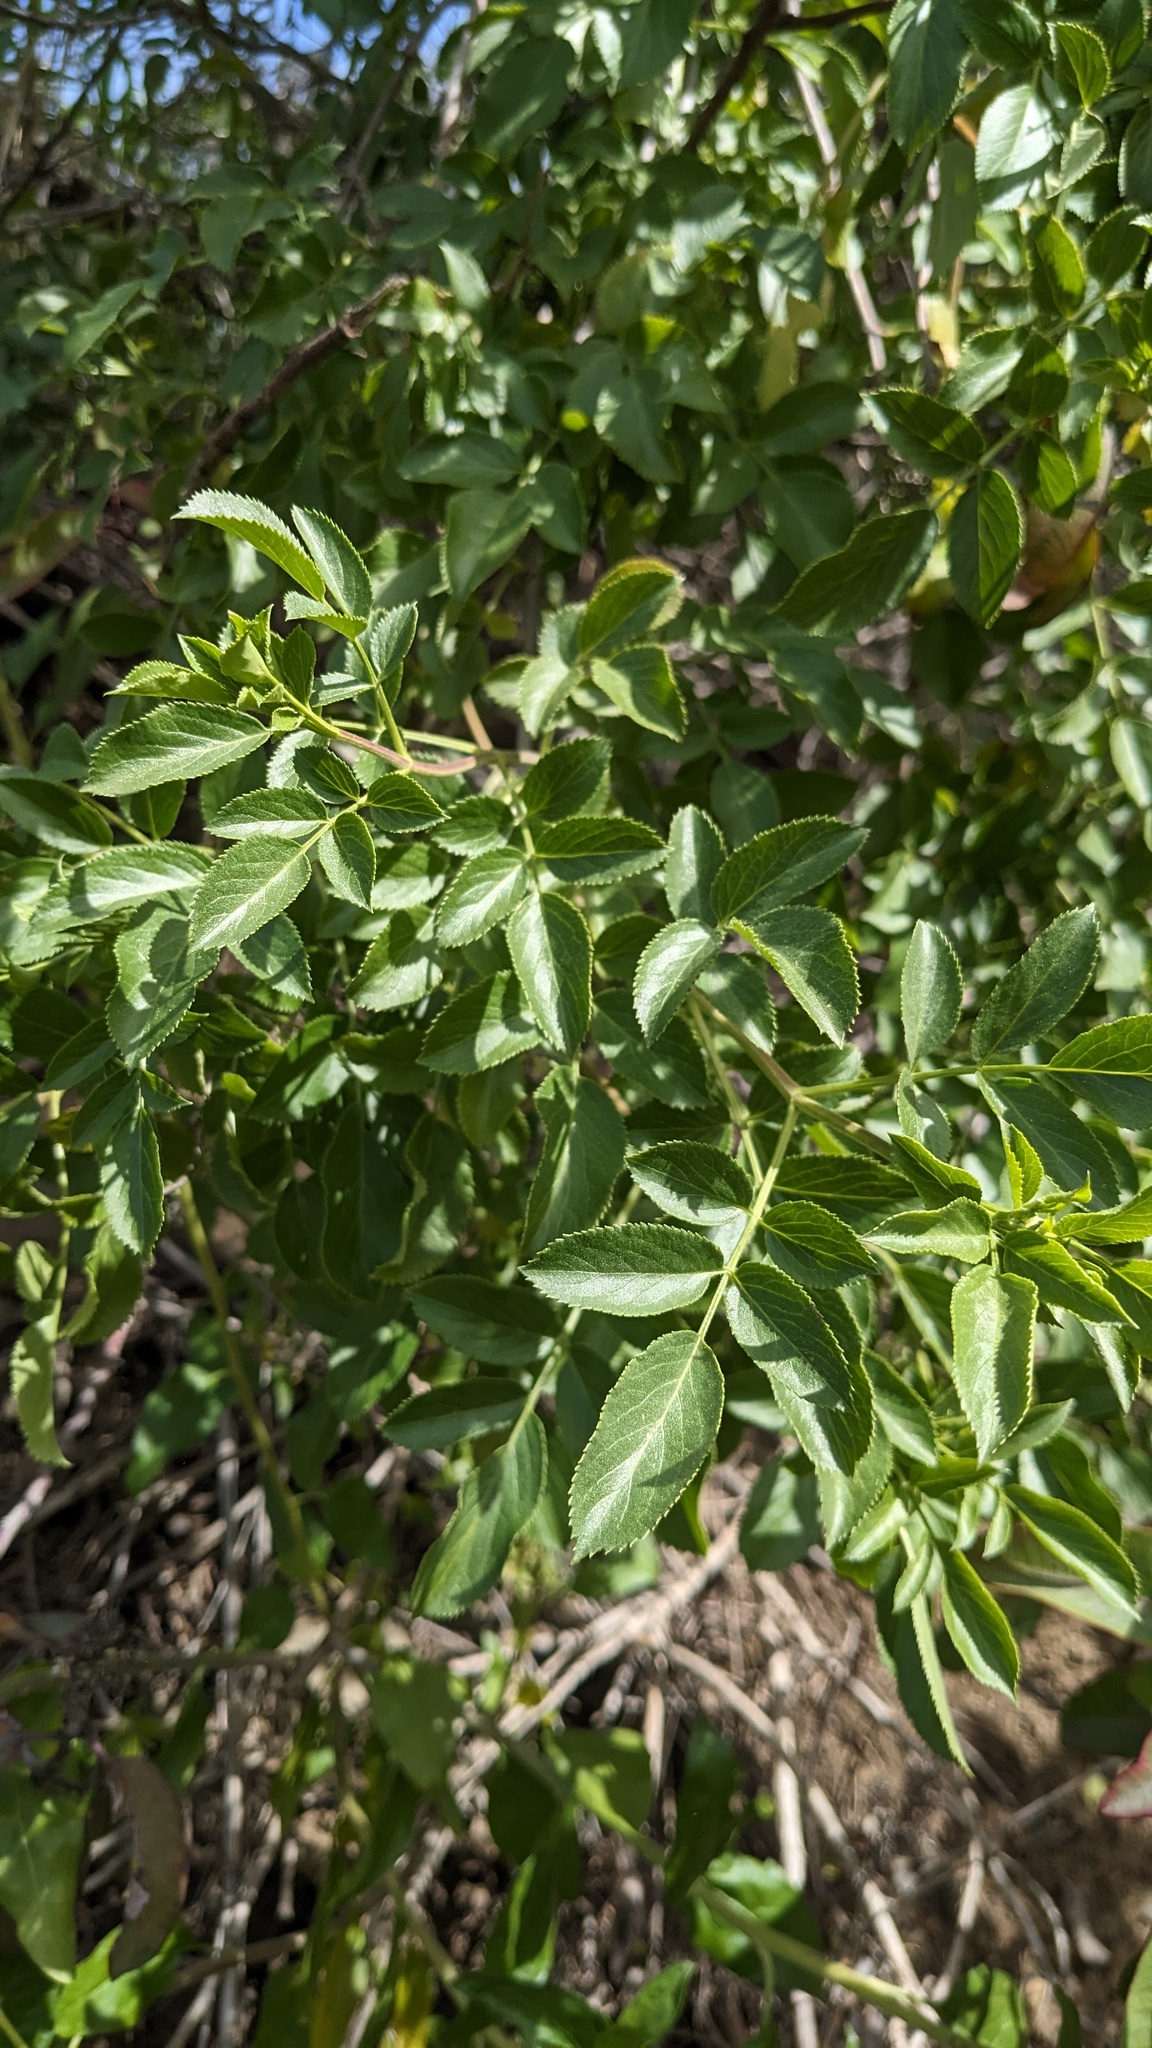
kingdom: Plantae
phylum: Tracheophyta
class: Magnoliopsida
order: Dipsacales
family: Viburnaceae
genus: Sambucus
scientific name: Sambucus cerulea
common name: Blue elder
